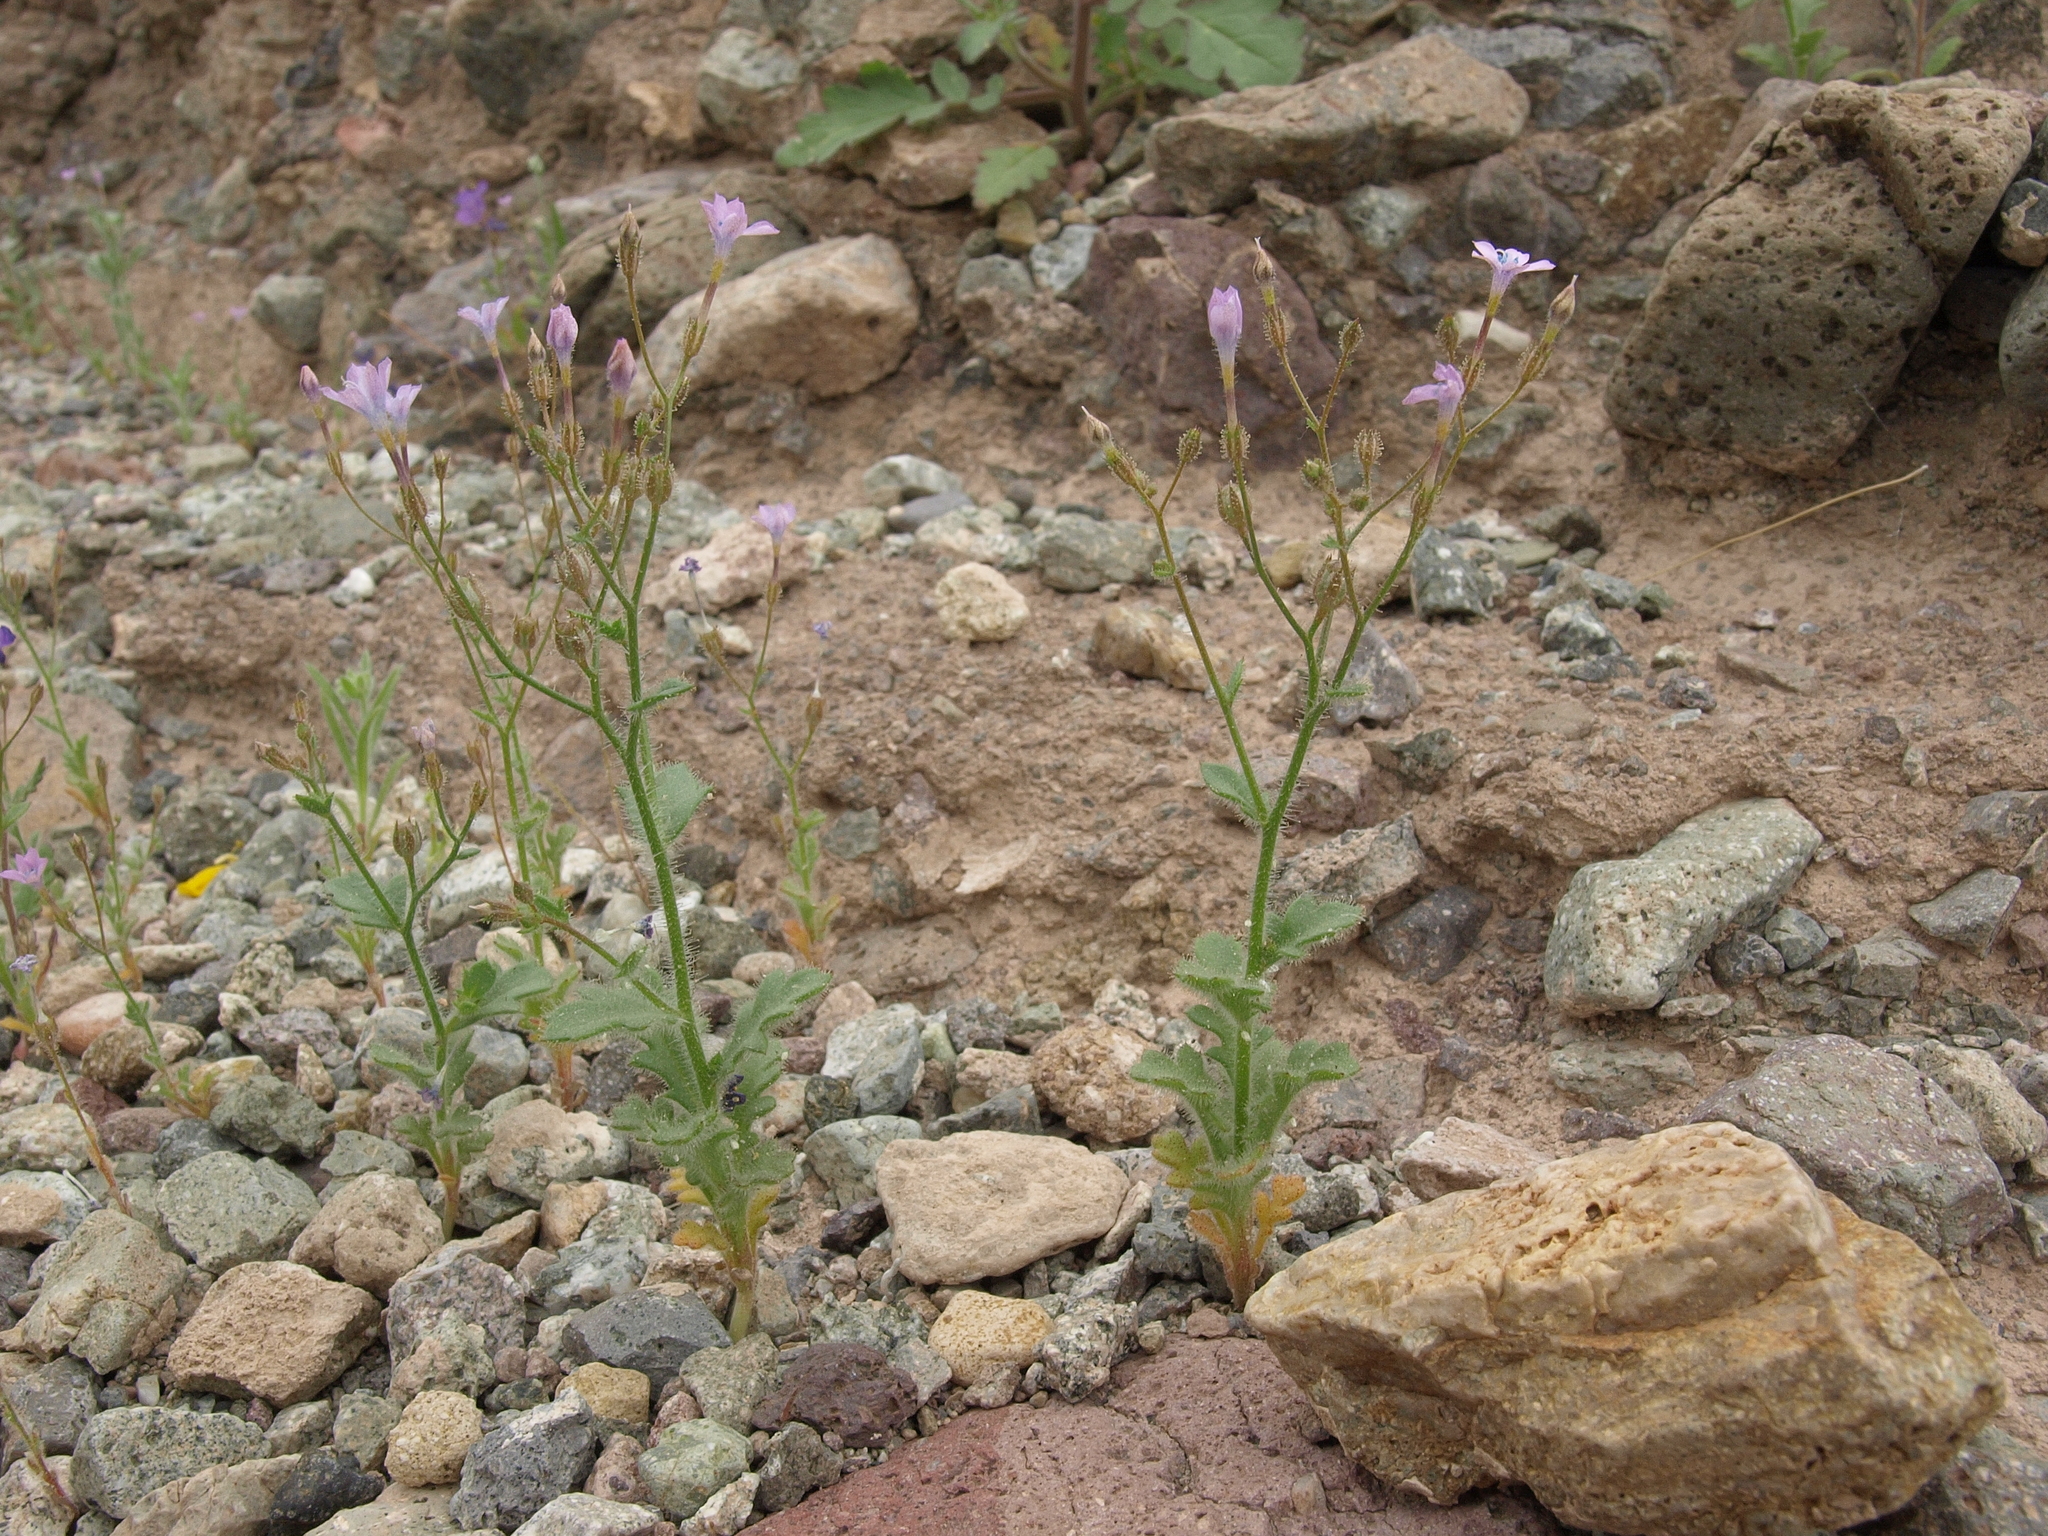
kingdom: Plantae
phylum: Tracheophyta
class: Magnoliopsida
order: Ericales
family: Polemoniaceae
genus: Gilia
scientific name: Gilia scopulorum
